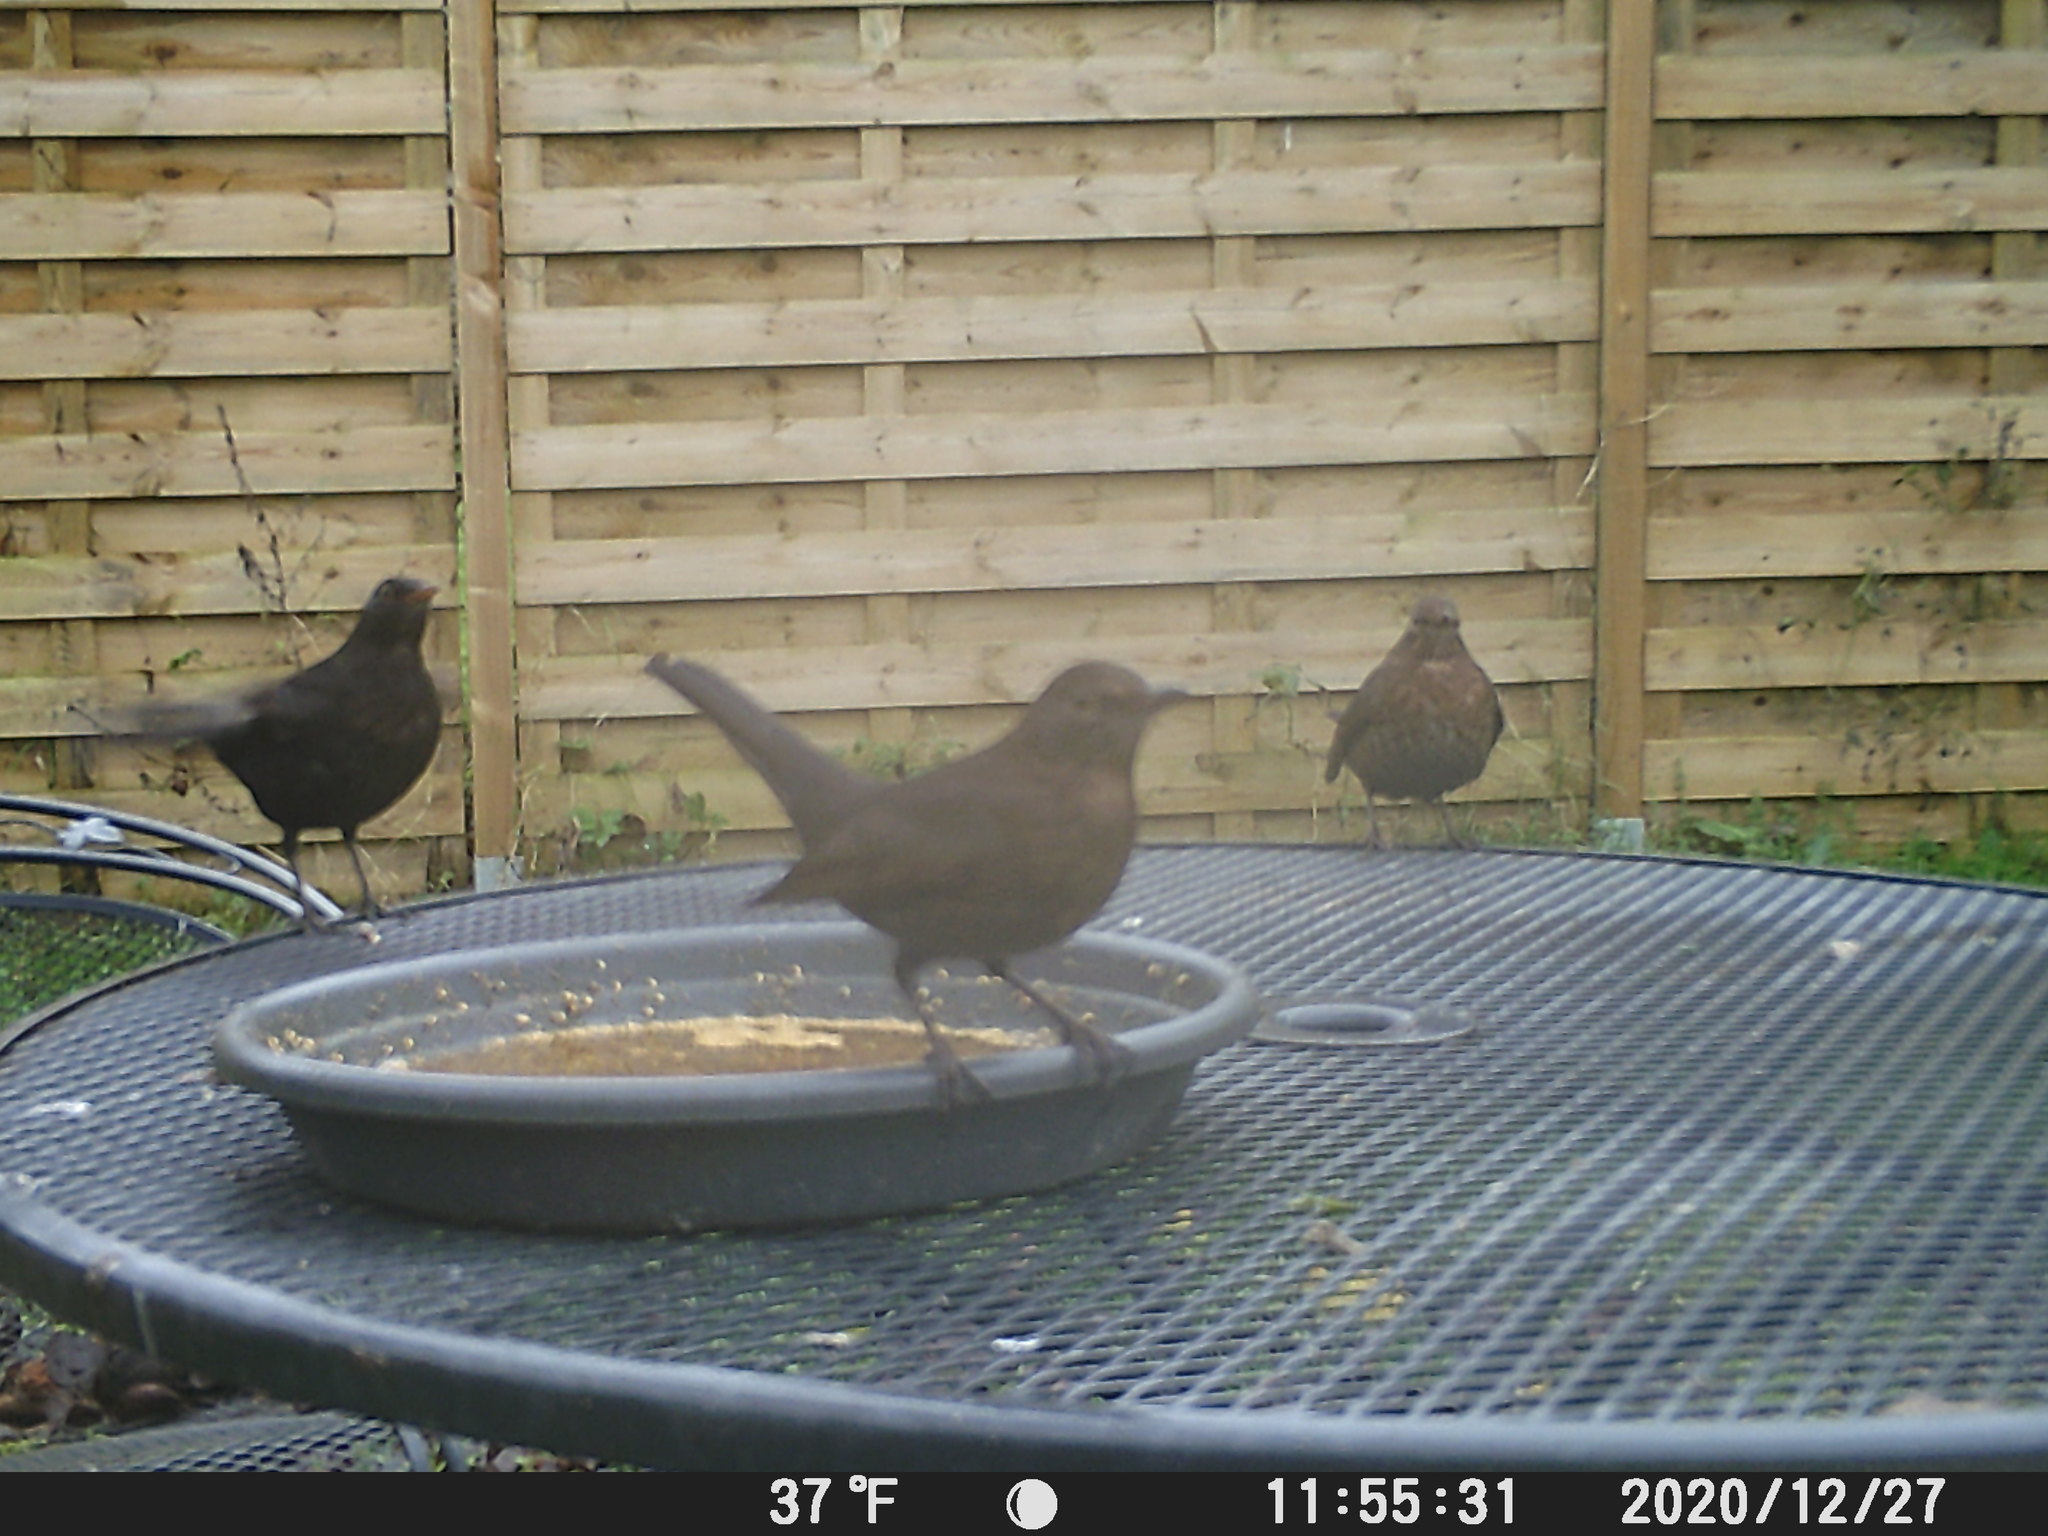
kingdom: Animalia
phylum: Chordata
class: Aves
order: Passeriformes
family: Turdidae
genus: Turdus
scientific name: Turdus merula
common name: Common blackbird
